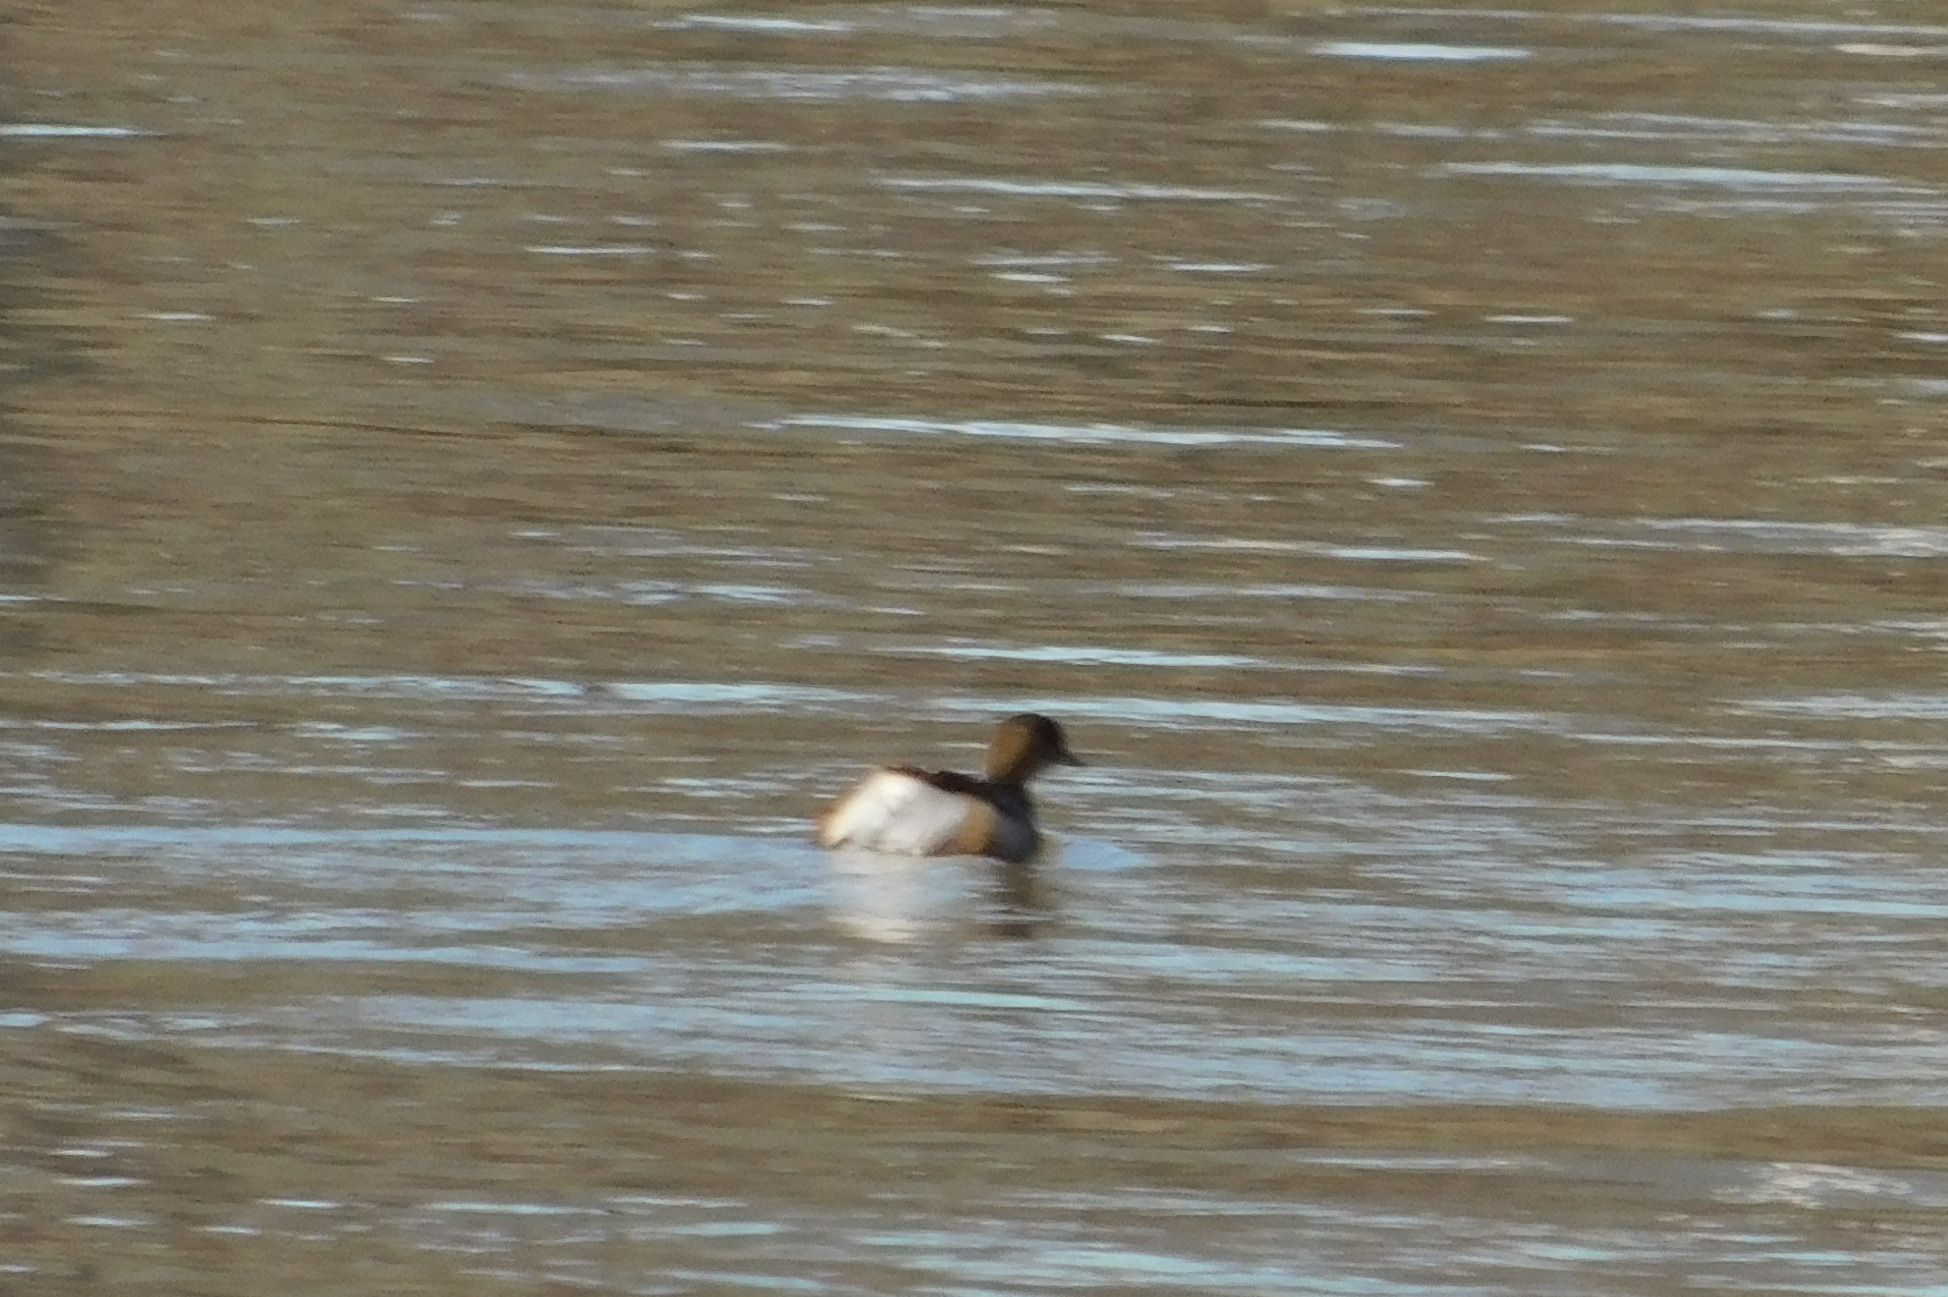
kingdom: Animalia
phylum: Chordata
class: Aves
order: Podicipediformes
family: Podicipedidae
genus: Tachybaptus
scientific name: Tachybaptus ruficollis
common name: Little grebe
